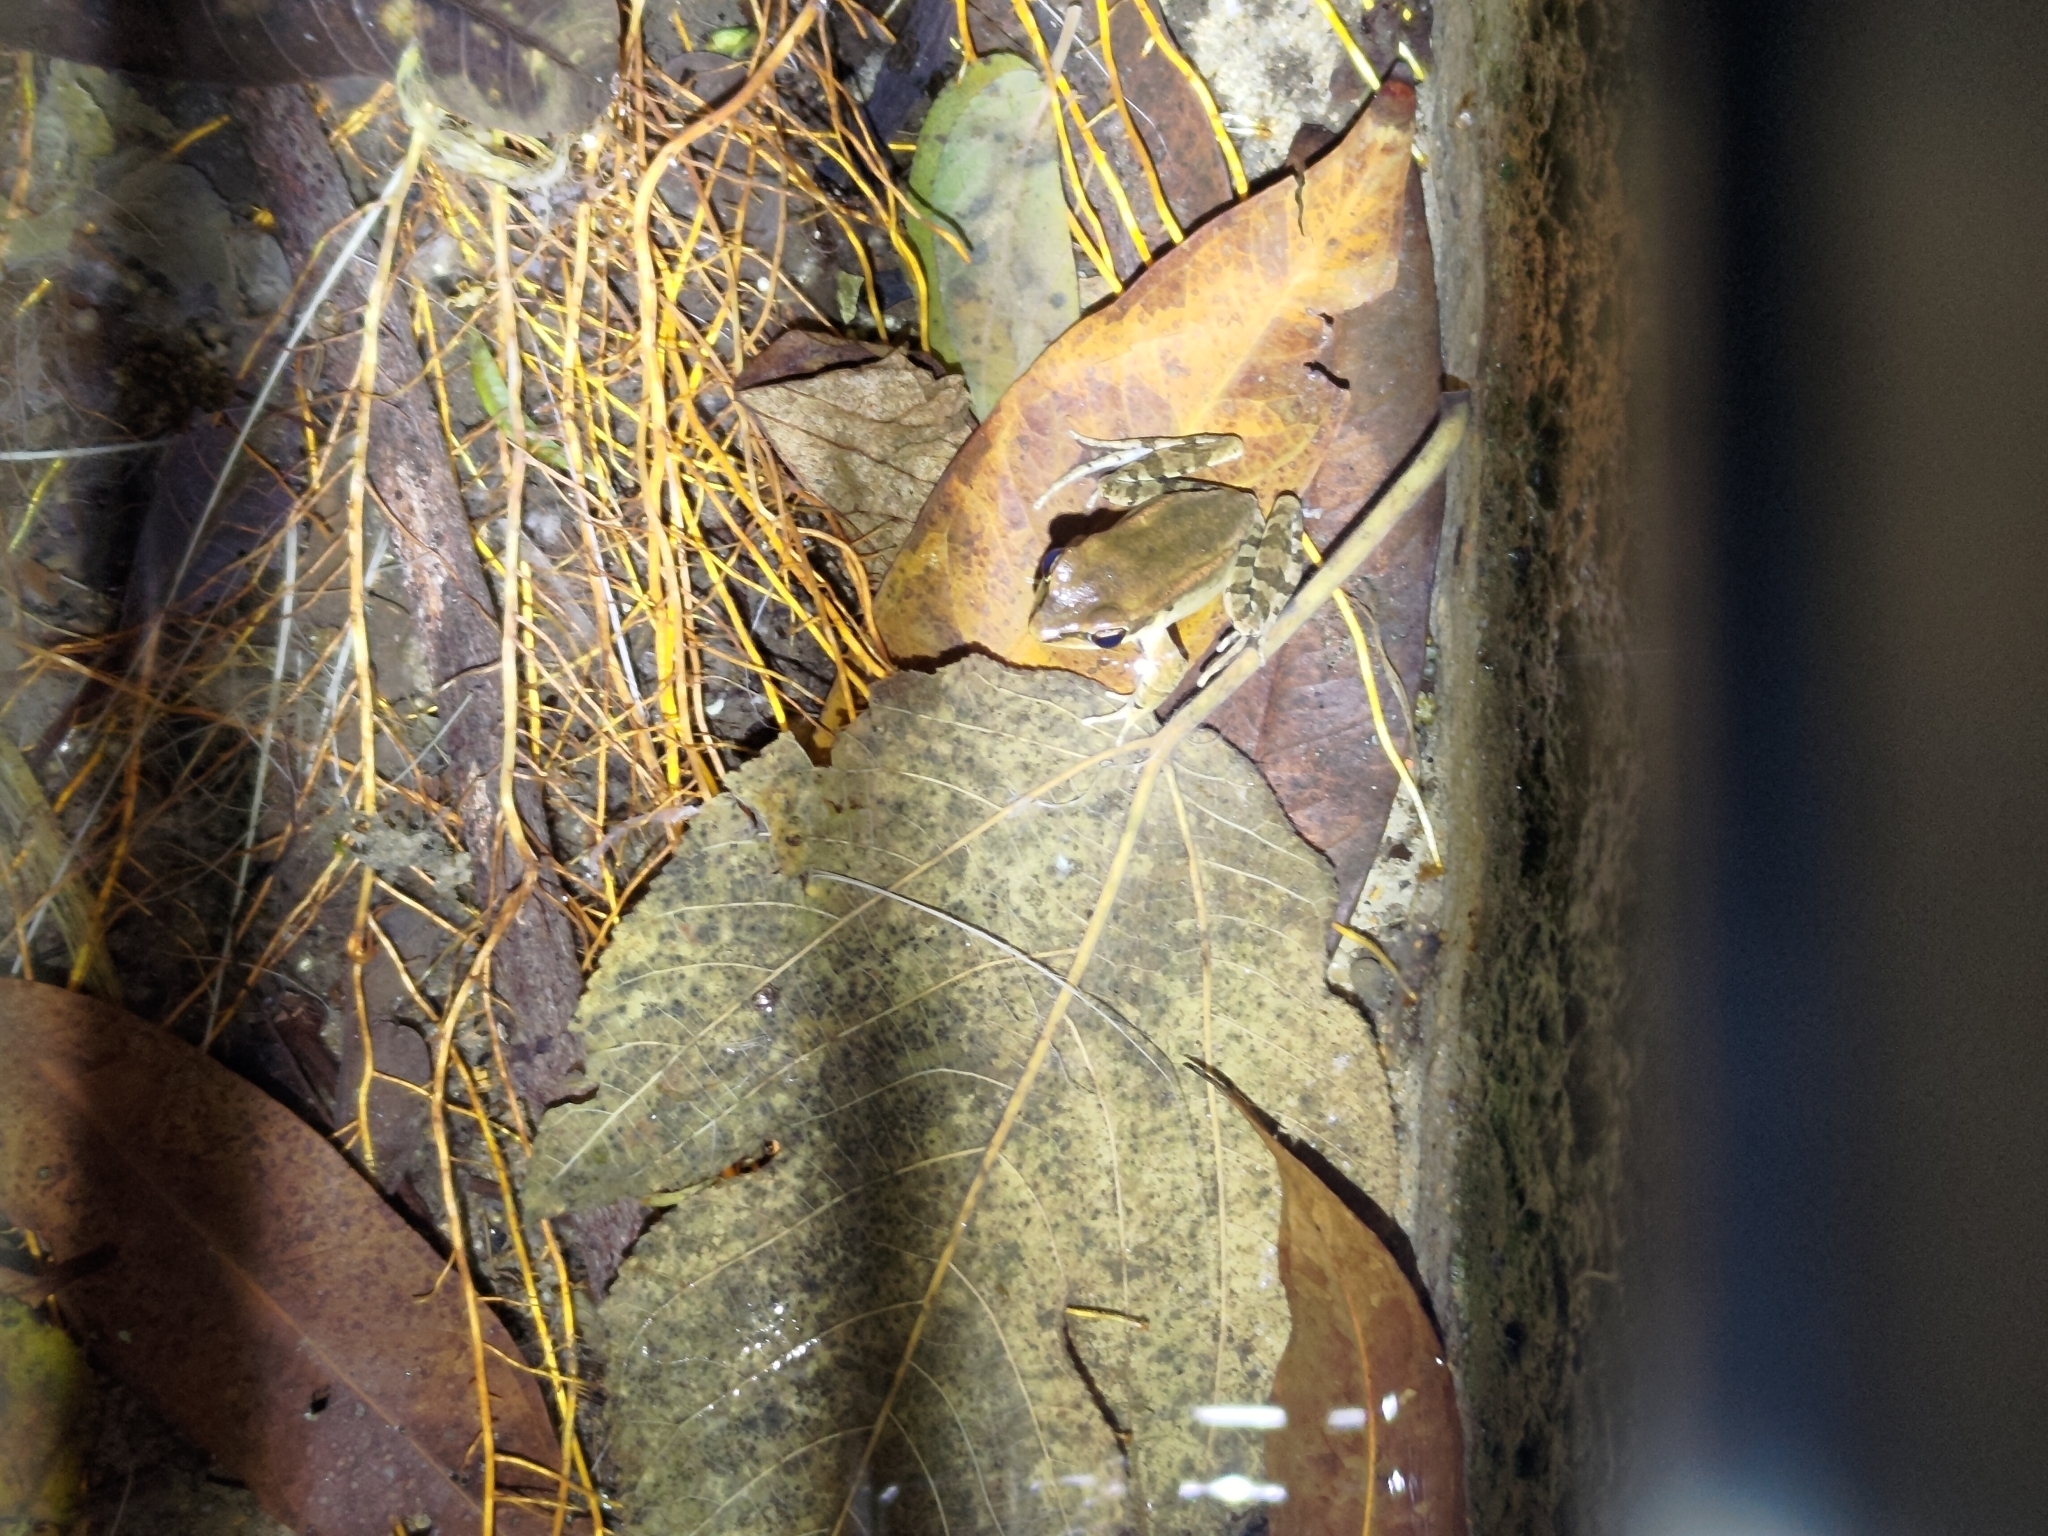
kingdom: Animalia
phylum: Chordata
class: Amphibia
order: Anura
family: Ranidae
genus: Hylarana
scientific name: Hylarana latouchii
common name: Broad-folded frog
